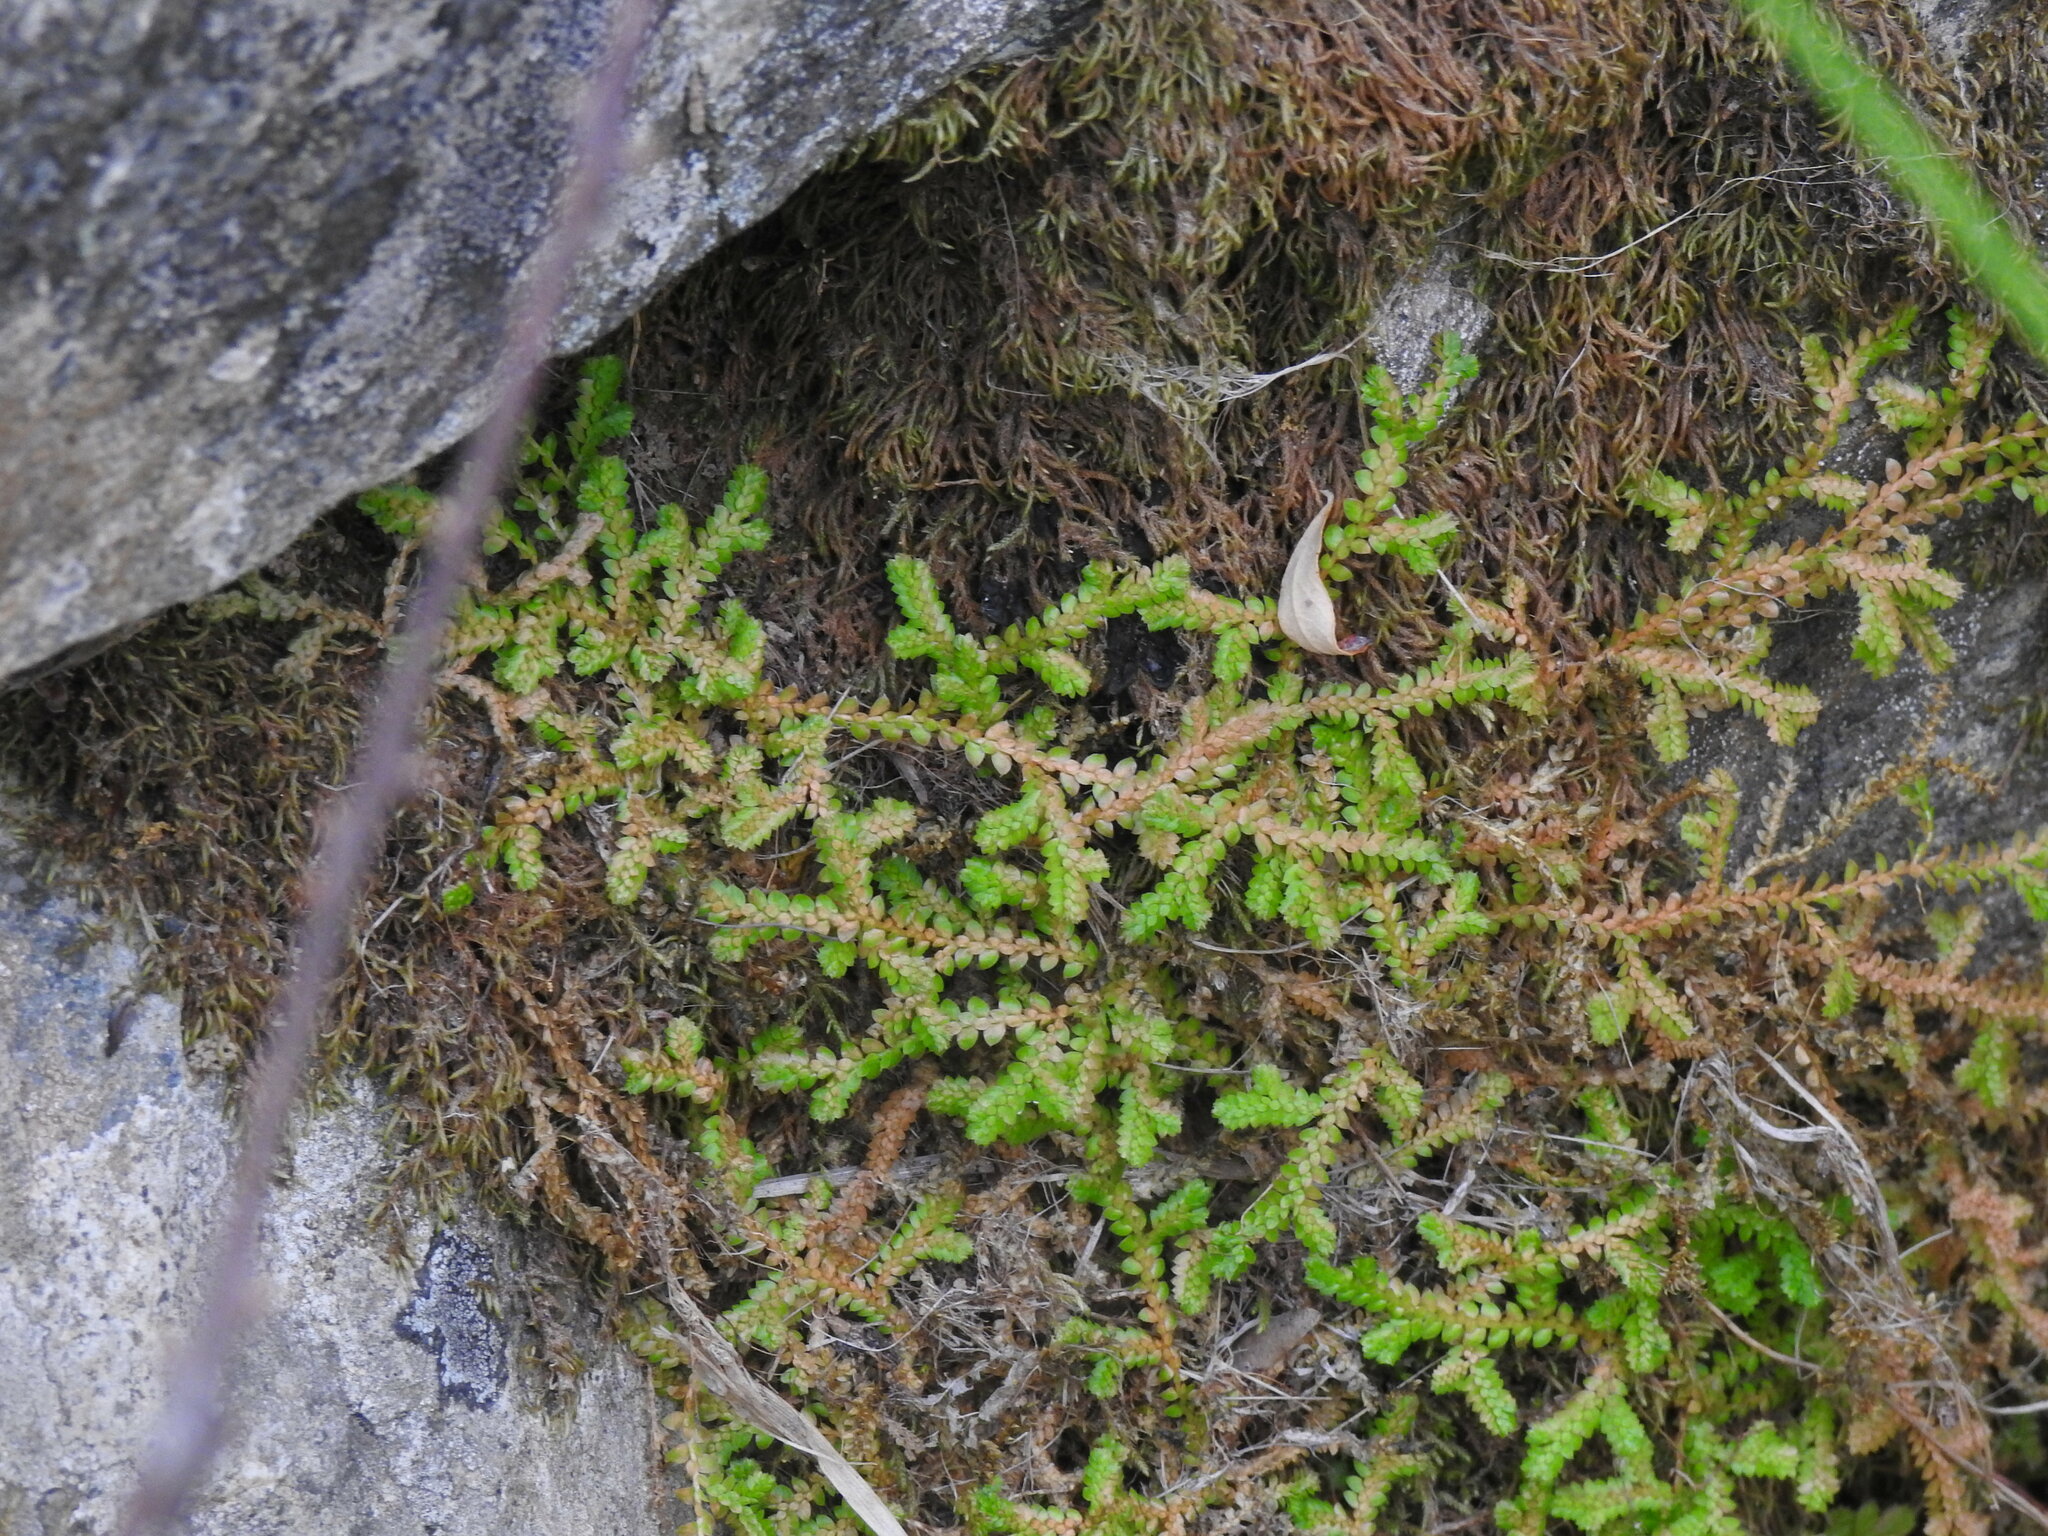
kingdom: Plantae
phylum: Tracheophyta
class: Lycopodiopsida
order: Selaginellales
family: Selaginellaceae
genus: Selaginella
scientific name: Selaginella denticulata
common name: Toothed-leaved clubmoss
